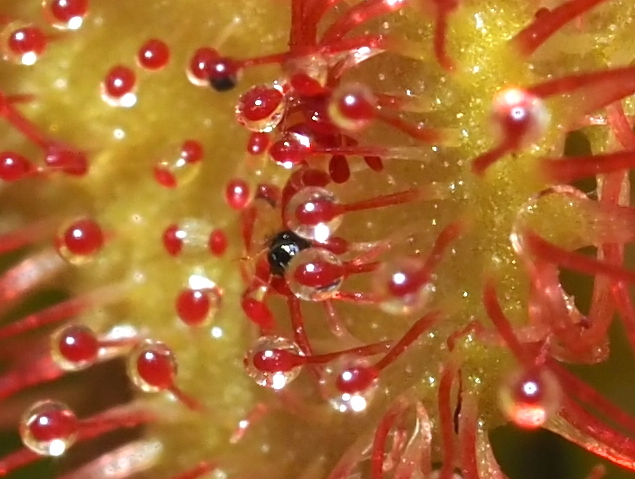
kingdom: Plantae
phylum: Tracheophyta
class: Magnoliopsida
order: Caryophyllales
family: Droseraceae
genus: Drosera
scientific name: Drosera rotundifolia
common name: Round-leaved sundew
